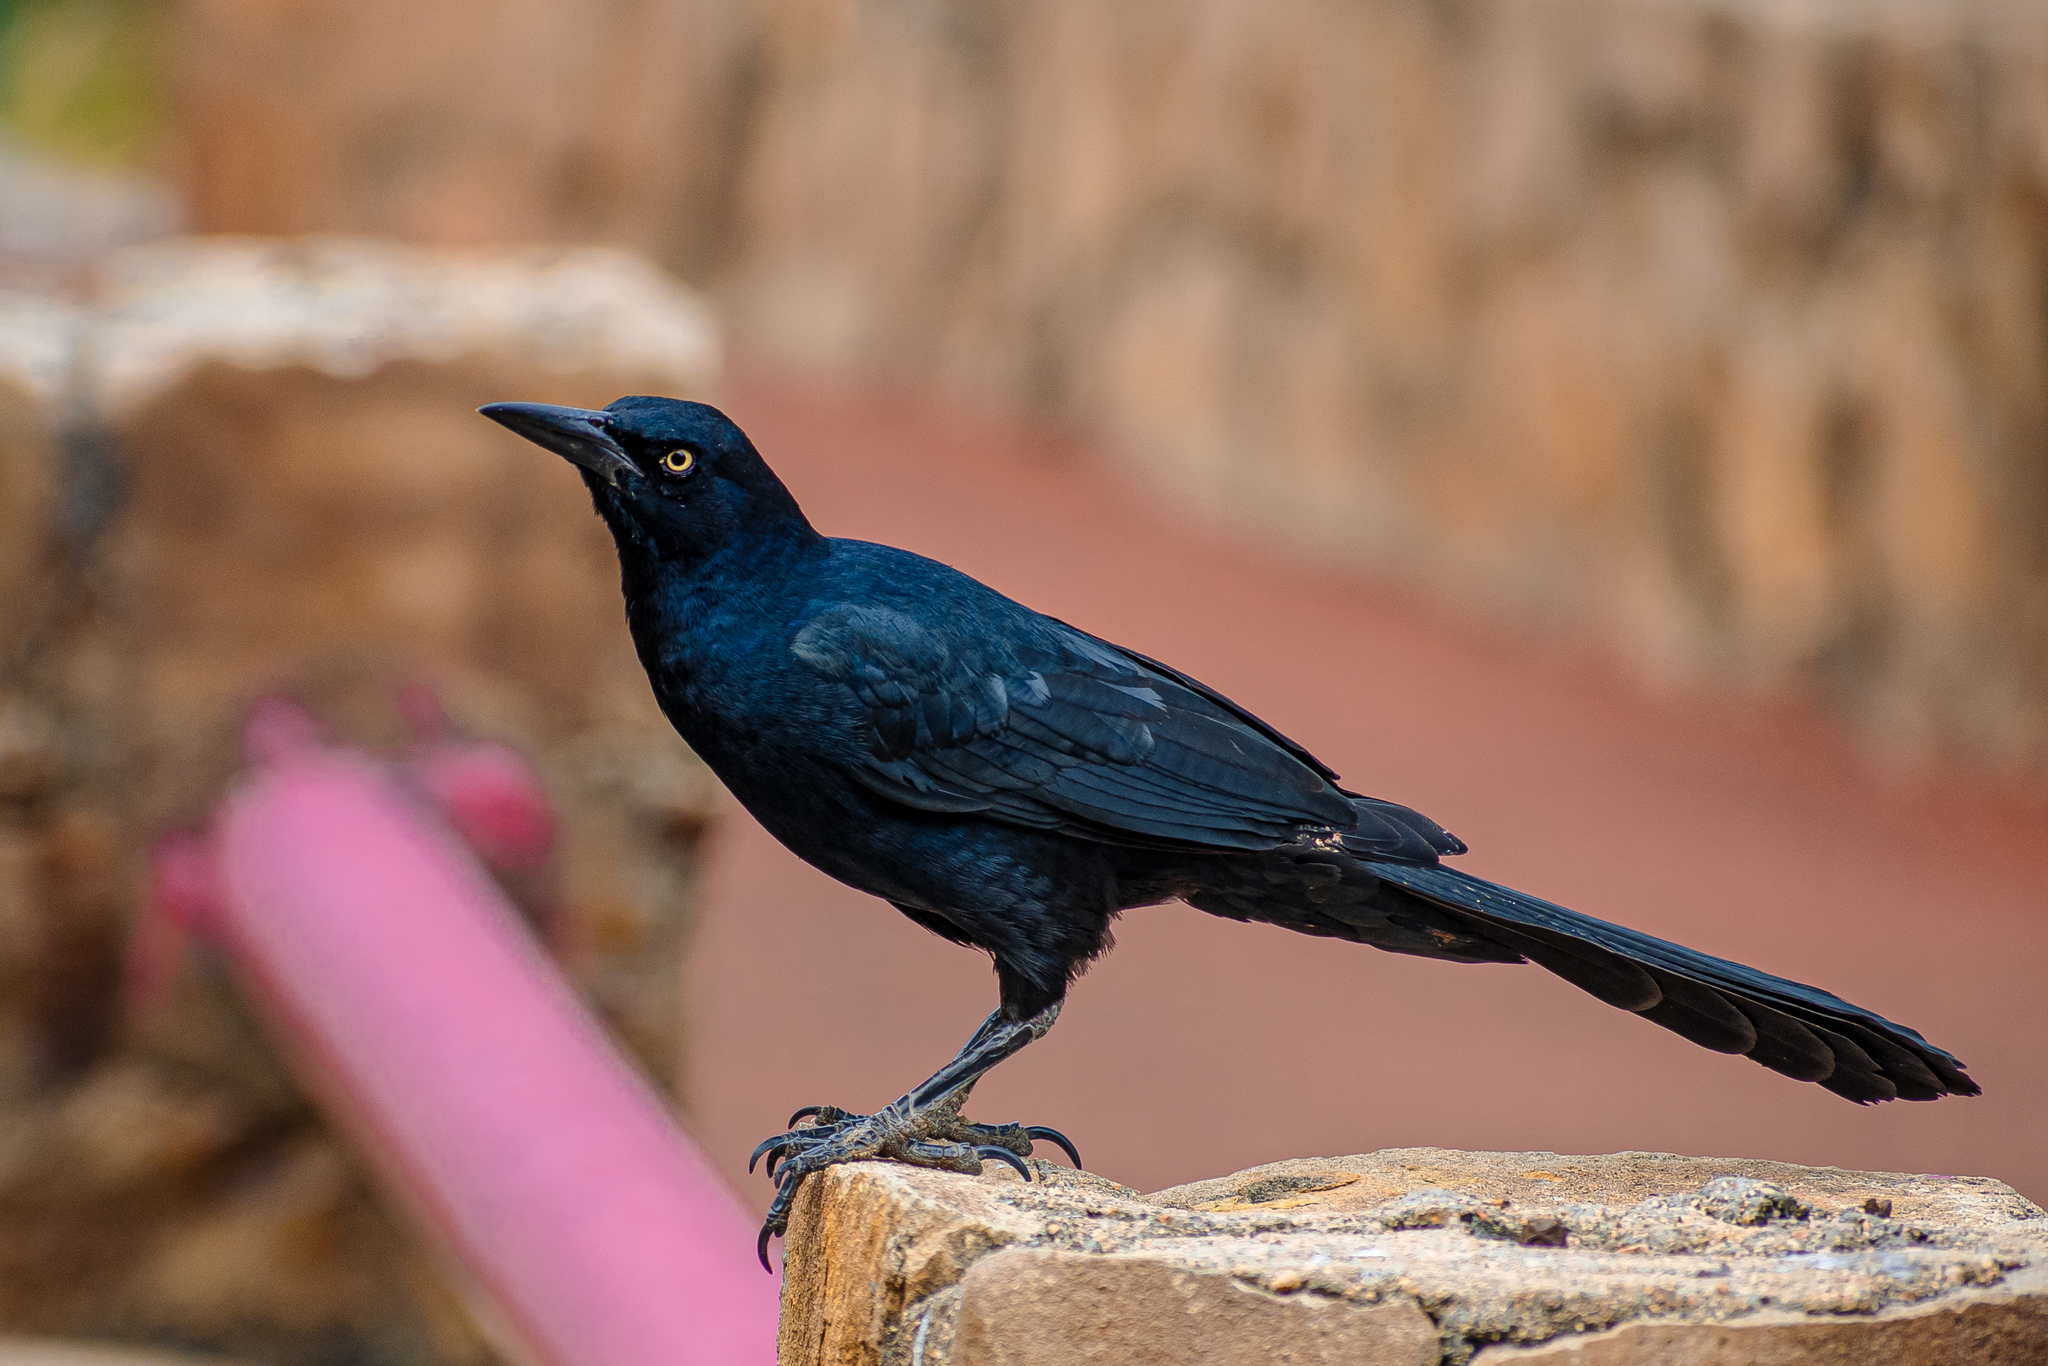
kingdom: Animalia
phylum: Chordata
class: Aves
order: Passeriformes
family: Icteridae
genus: Quiscalus
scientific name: Quiscalus mexicanus
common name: Great-tailed grackle
